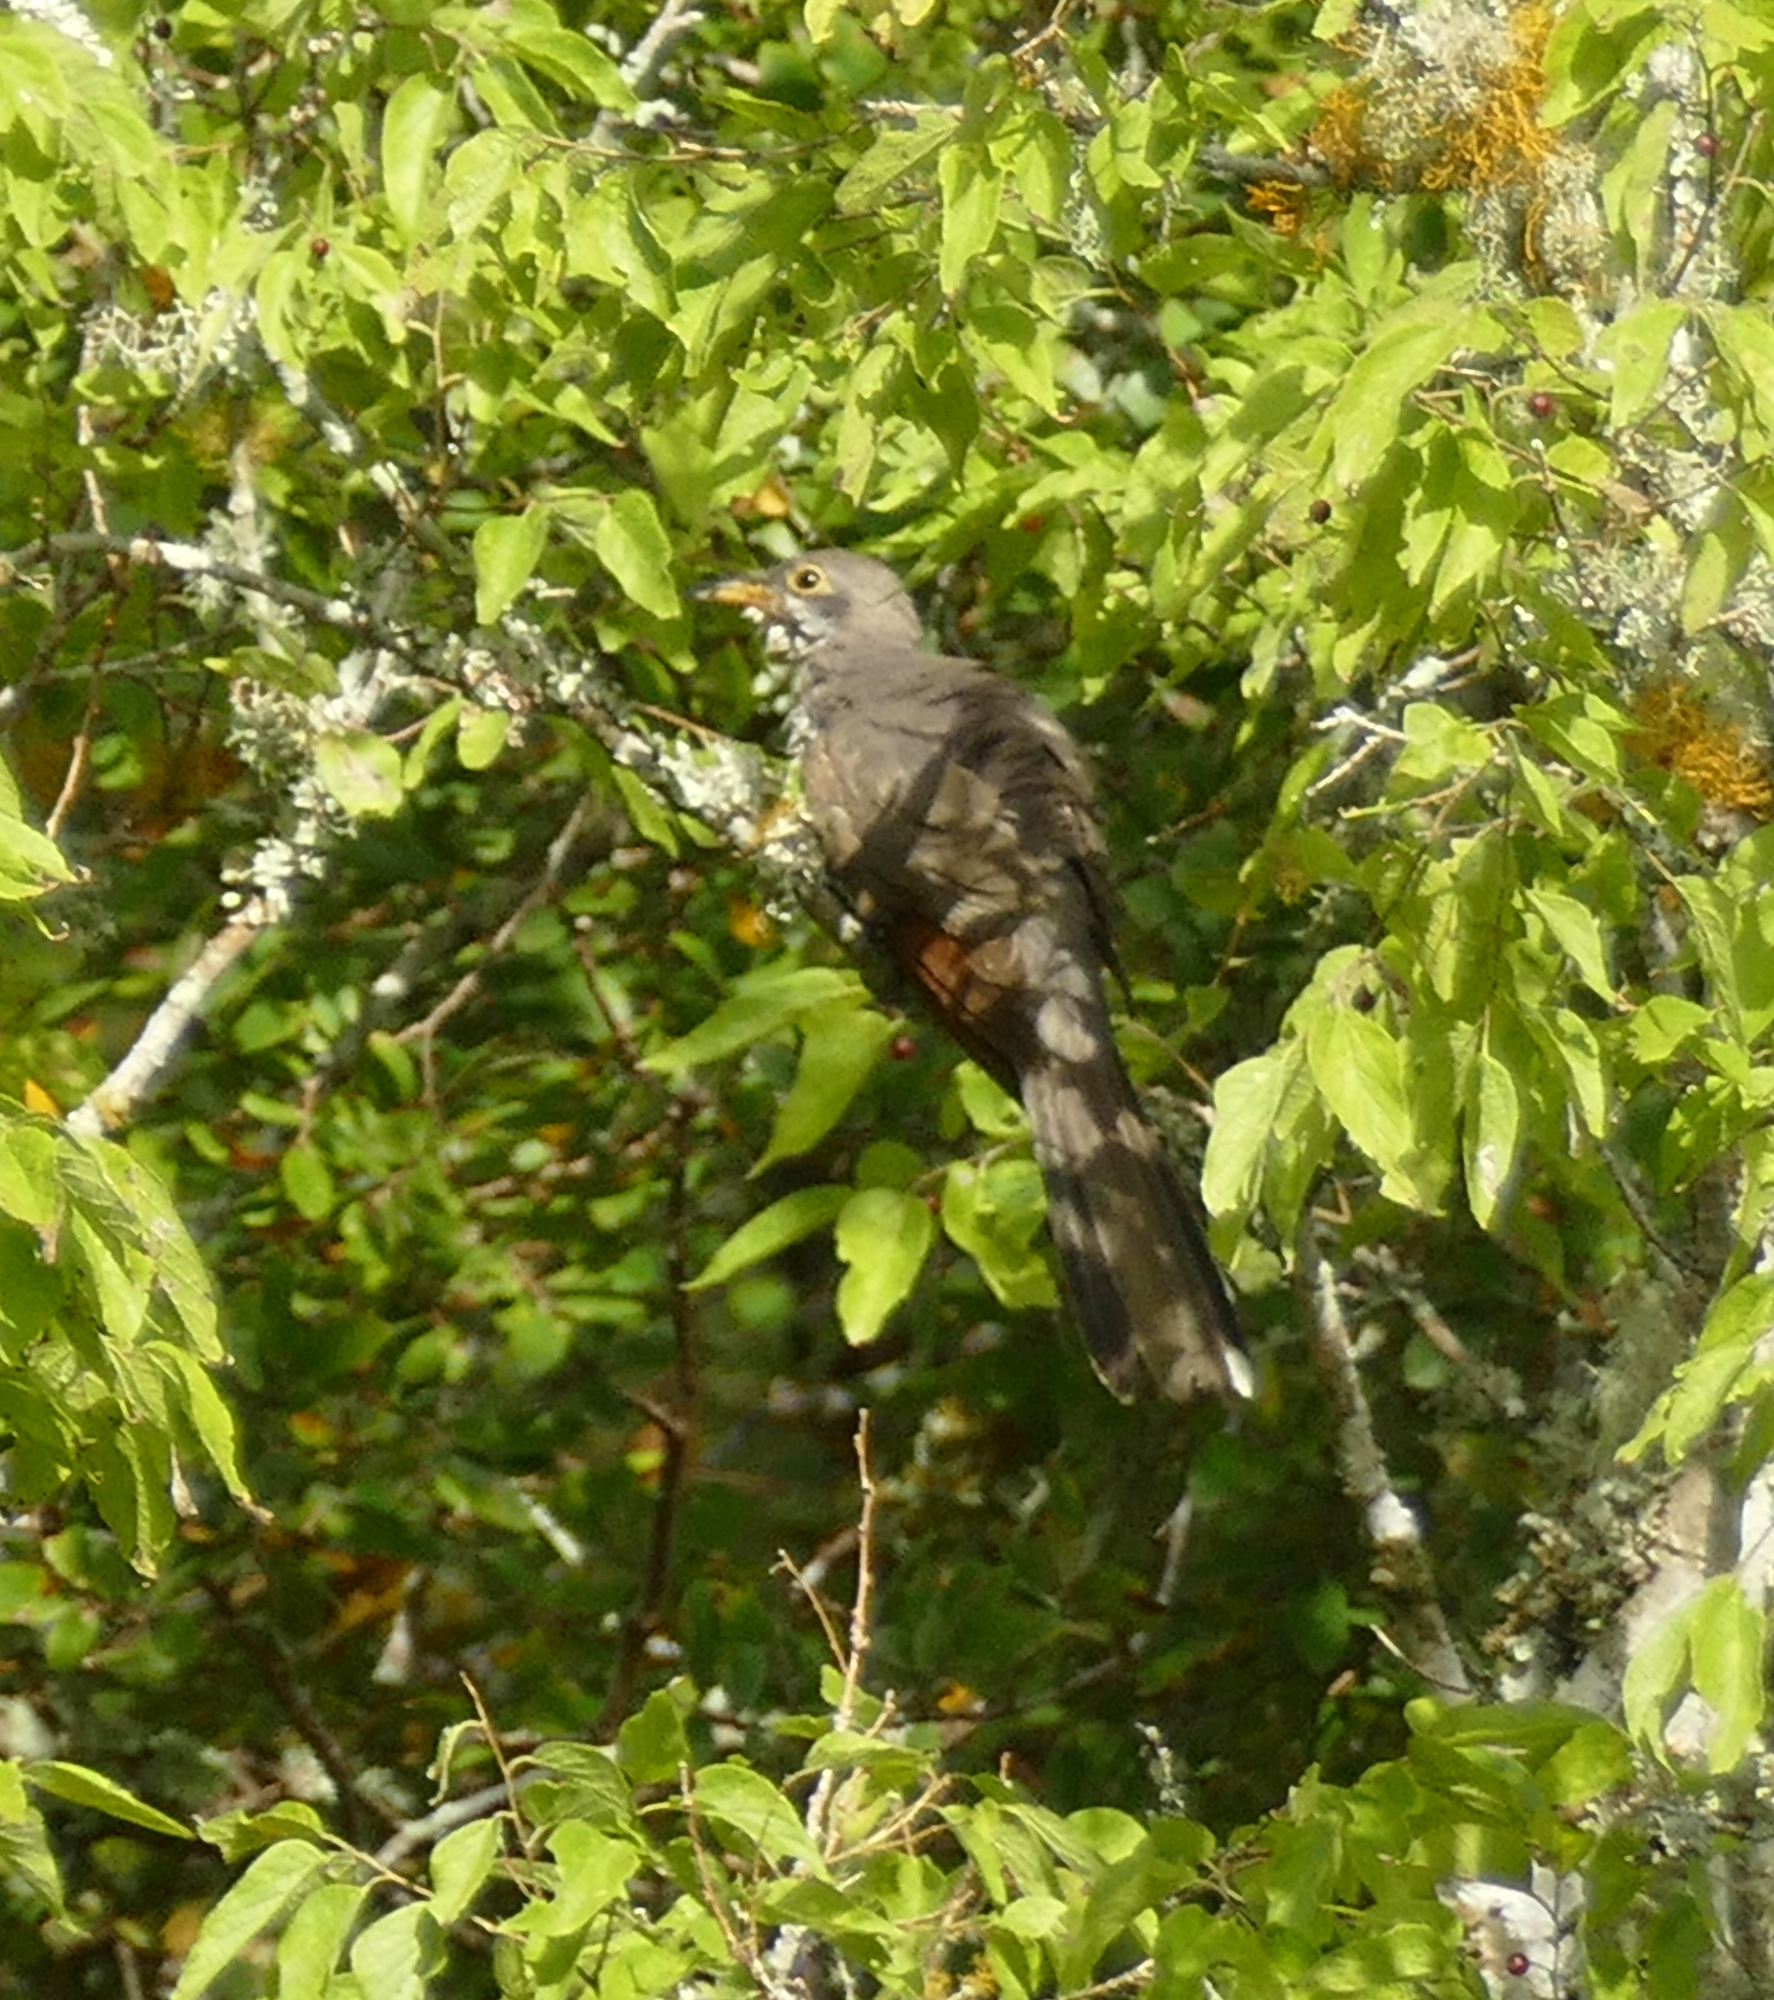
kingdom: Animalia
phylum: Chordata
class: Aves
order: Cuculiformes
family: Cuculidae
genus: Coccyzus
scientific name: Coccyzus americanus
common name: Yellow-billed cuckoo
